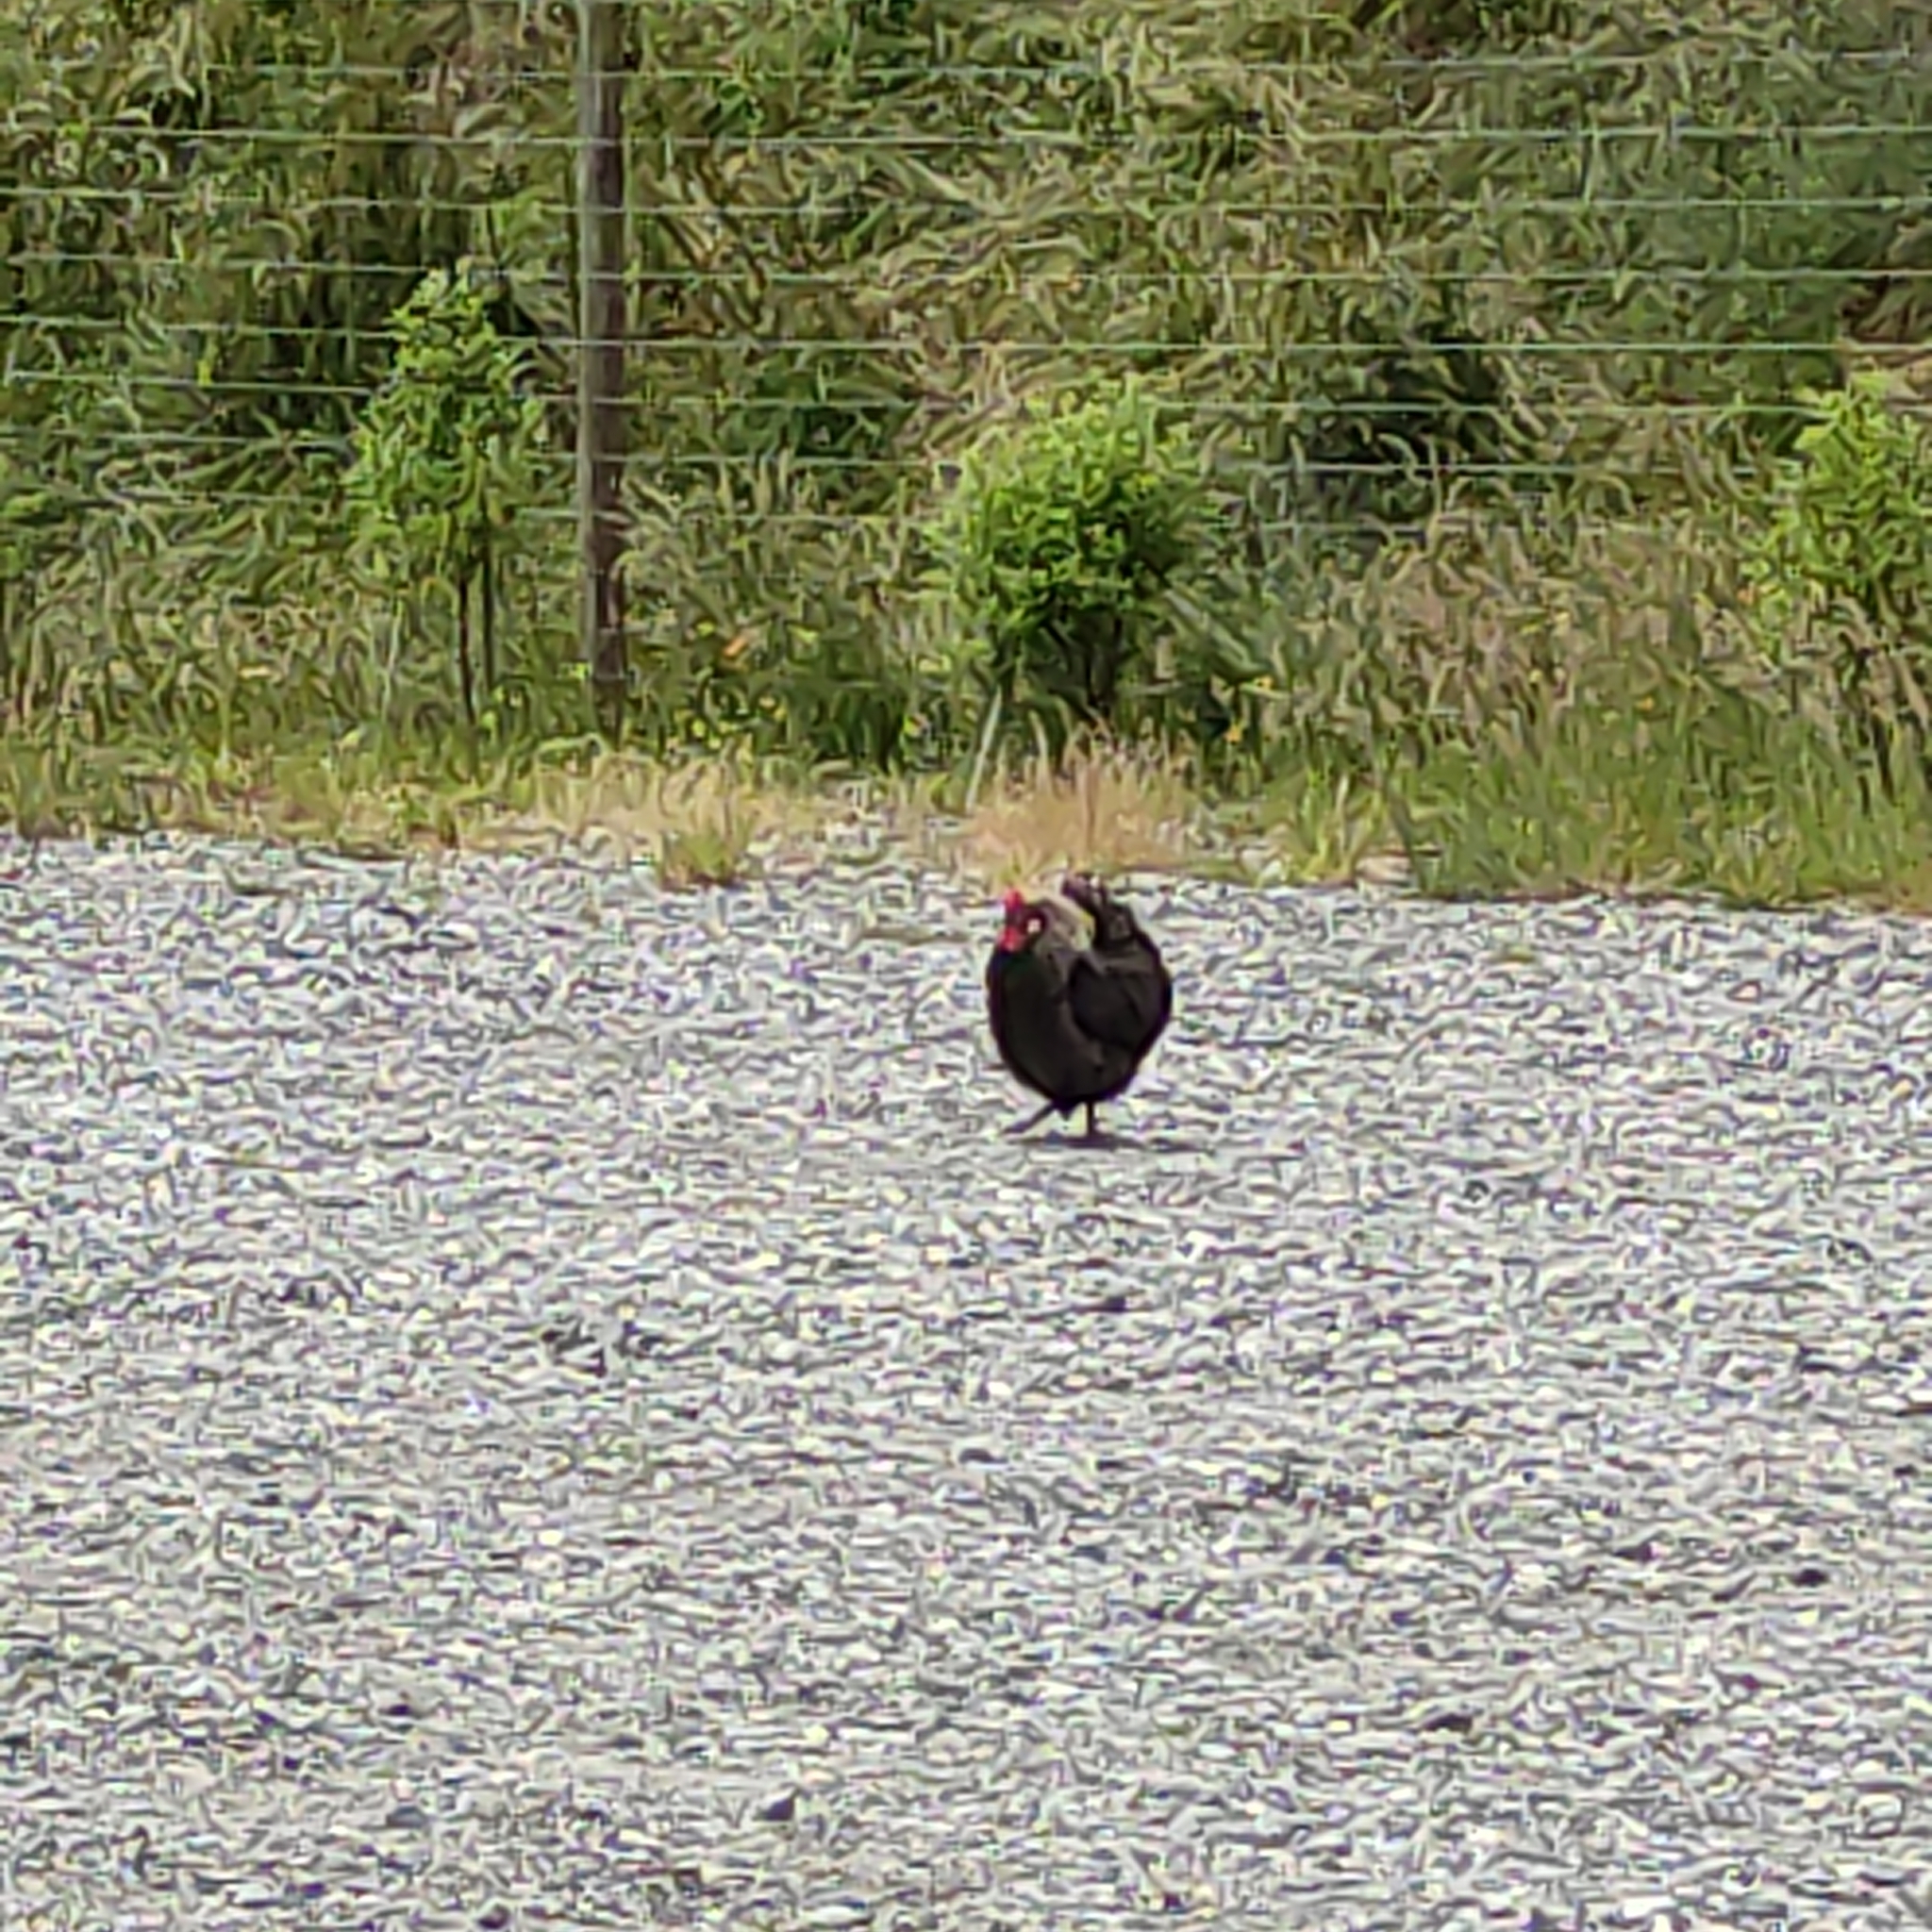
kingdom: Animalia
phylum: Chordata
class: Aves
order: Galliformes
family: Phasianidae
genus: Gallus
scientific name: Gallus gallus
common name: Red junglefowl
